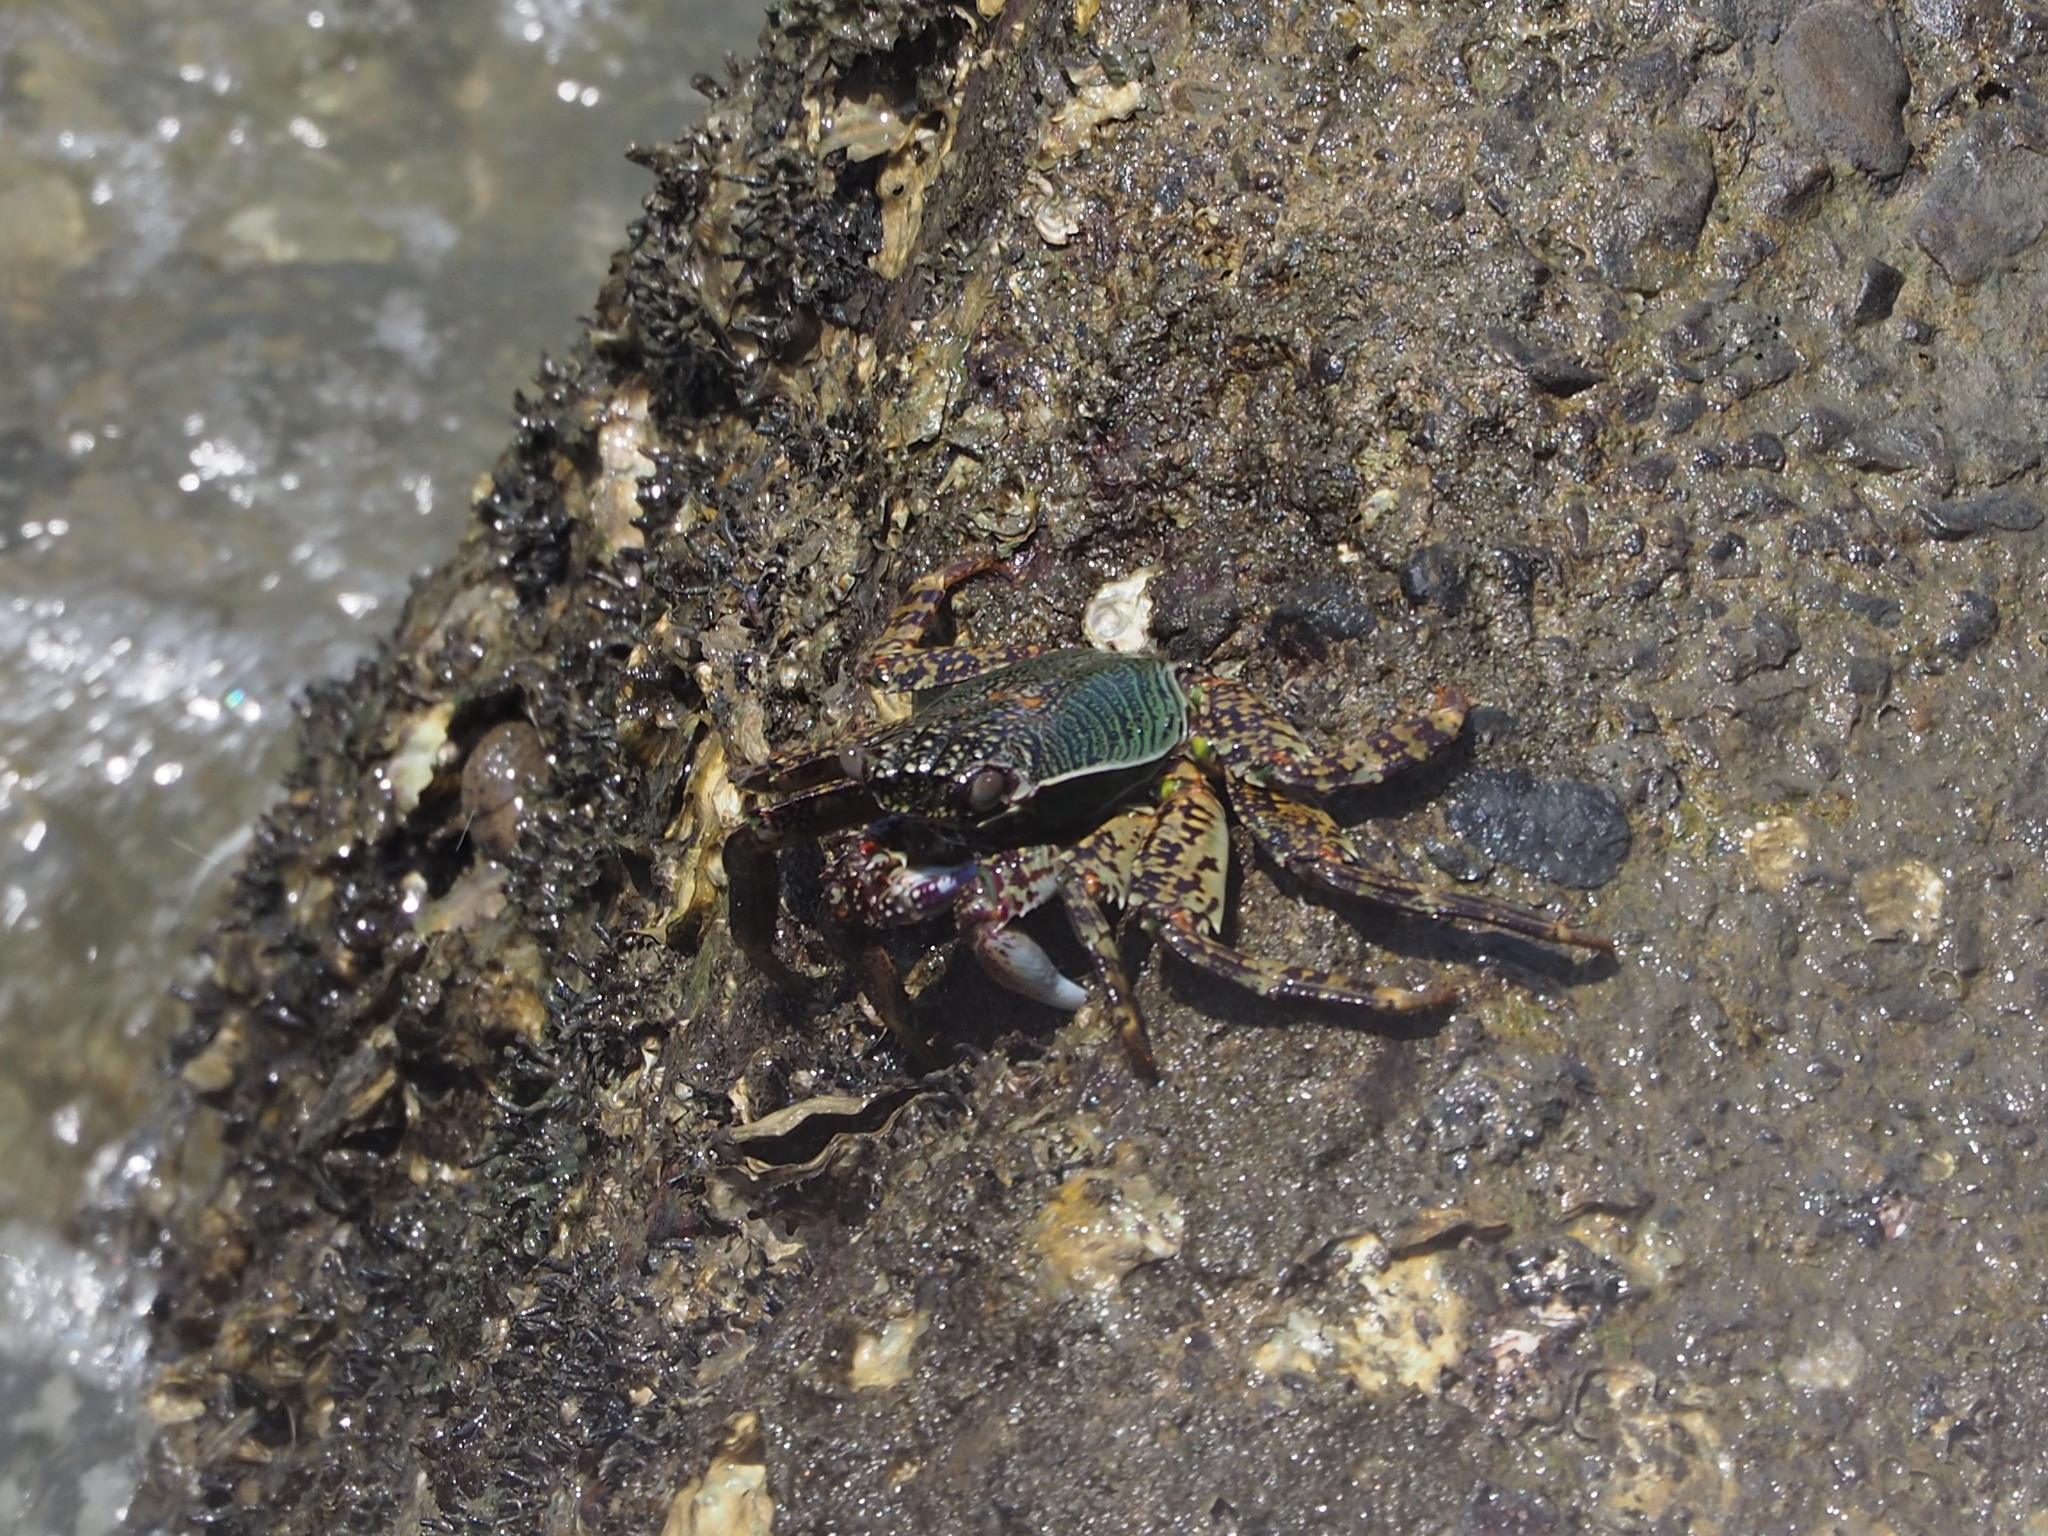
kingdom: Animalia
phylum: Arthropoda
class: Malacostraca
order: Decapoda
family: Grapsidae
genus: Grapsus
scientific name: Grapsus albolineatus
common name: Mottled lightfoot crab
